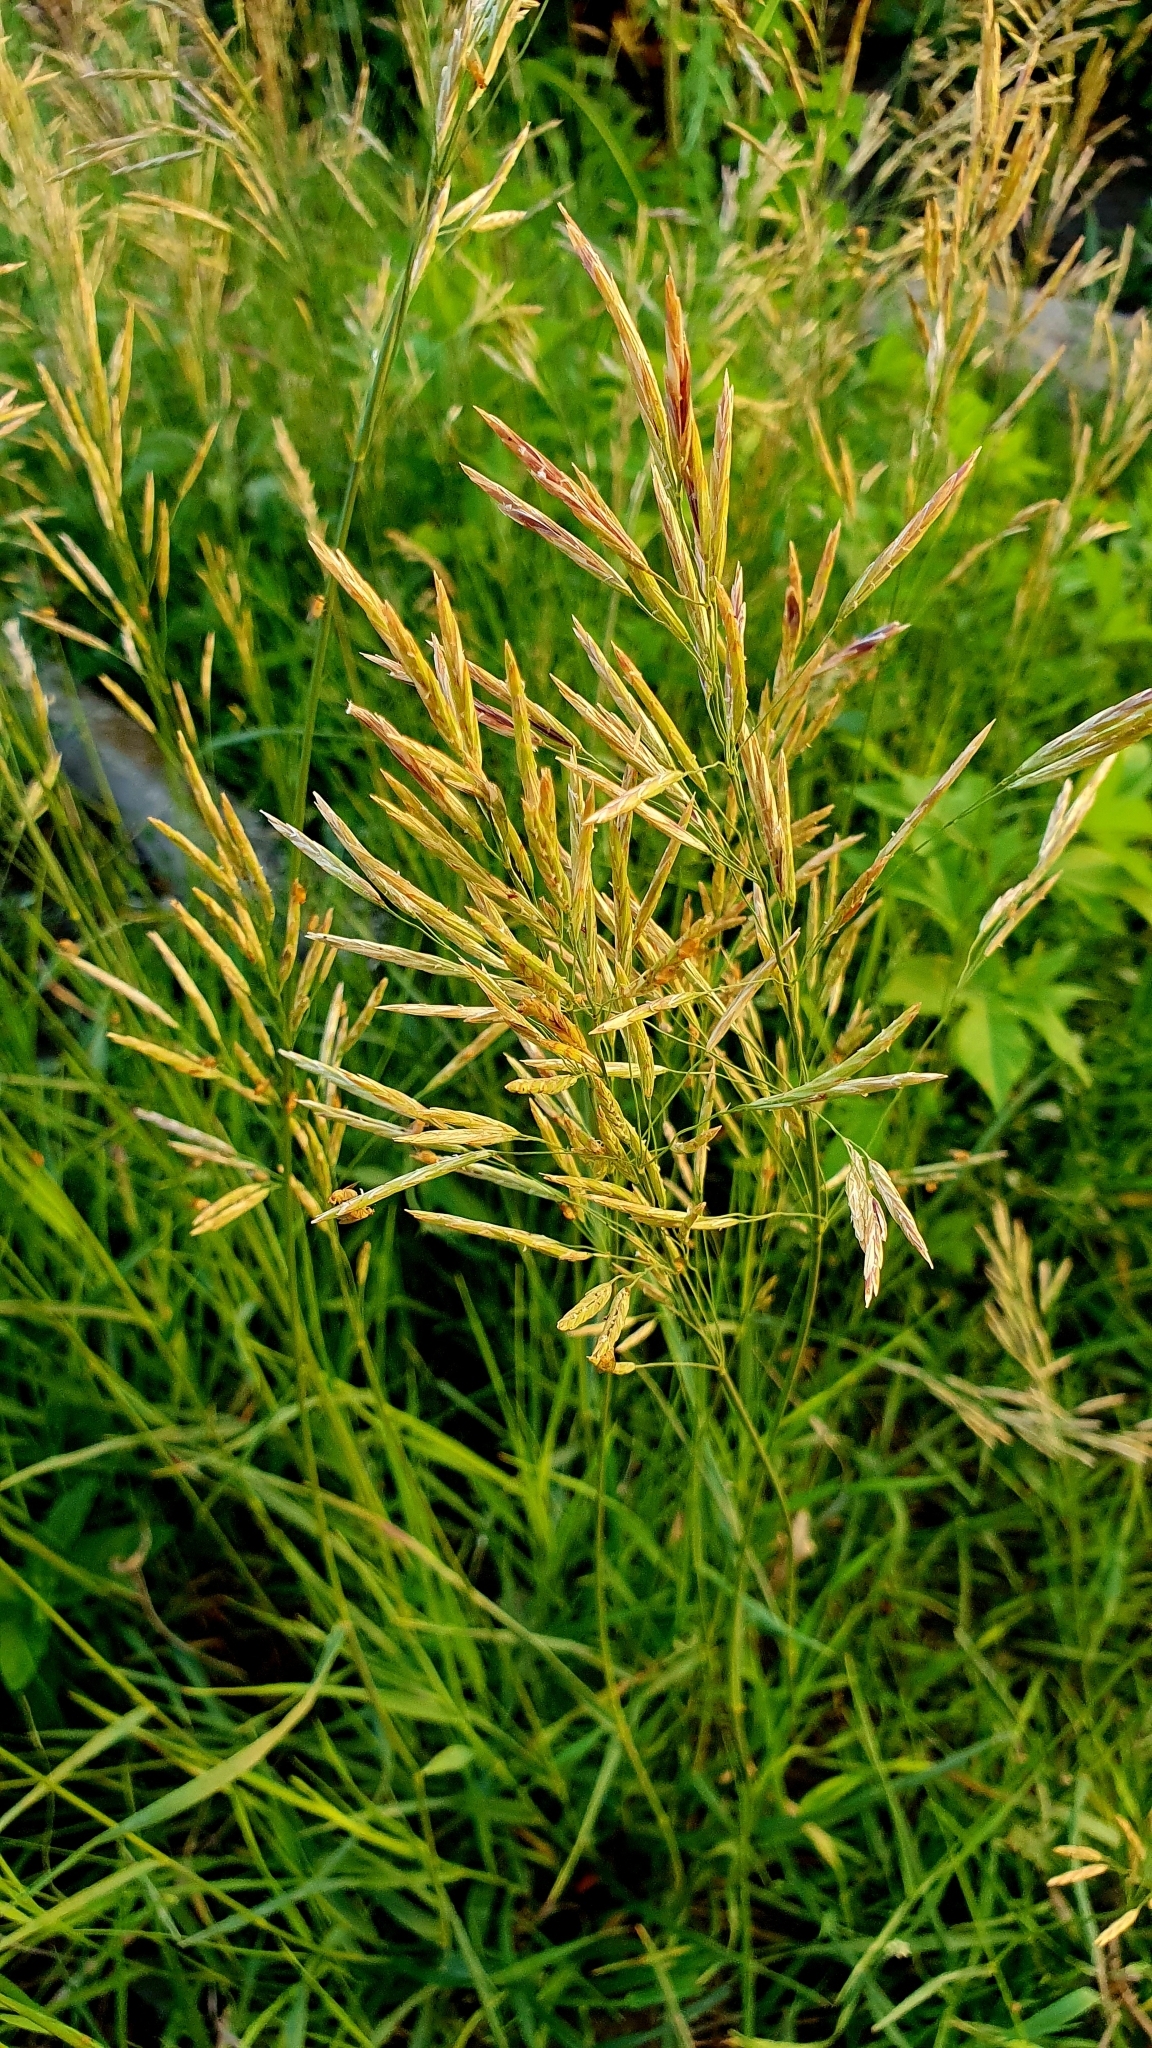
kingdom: Plantae
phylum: Tracheophyta
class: Liliopsida
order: Poales
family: Poaceae
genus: Bromus
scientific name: Bromus inermis
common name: Smooth brome
